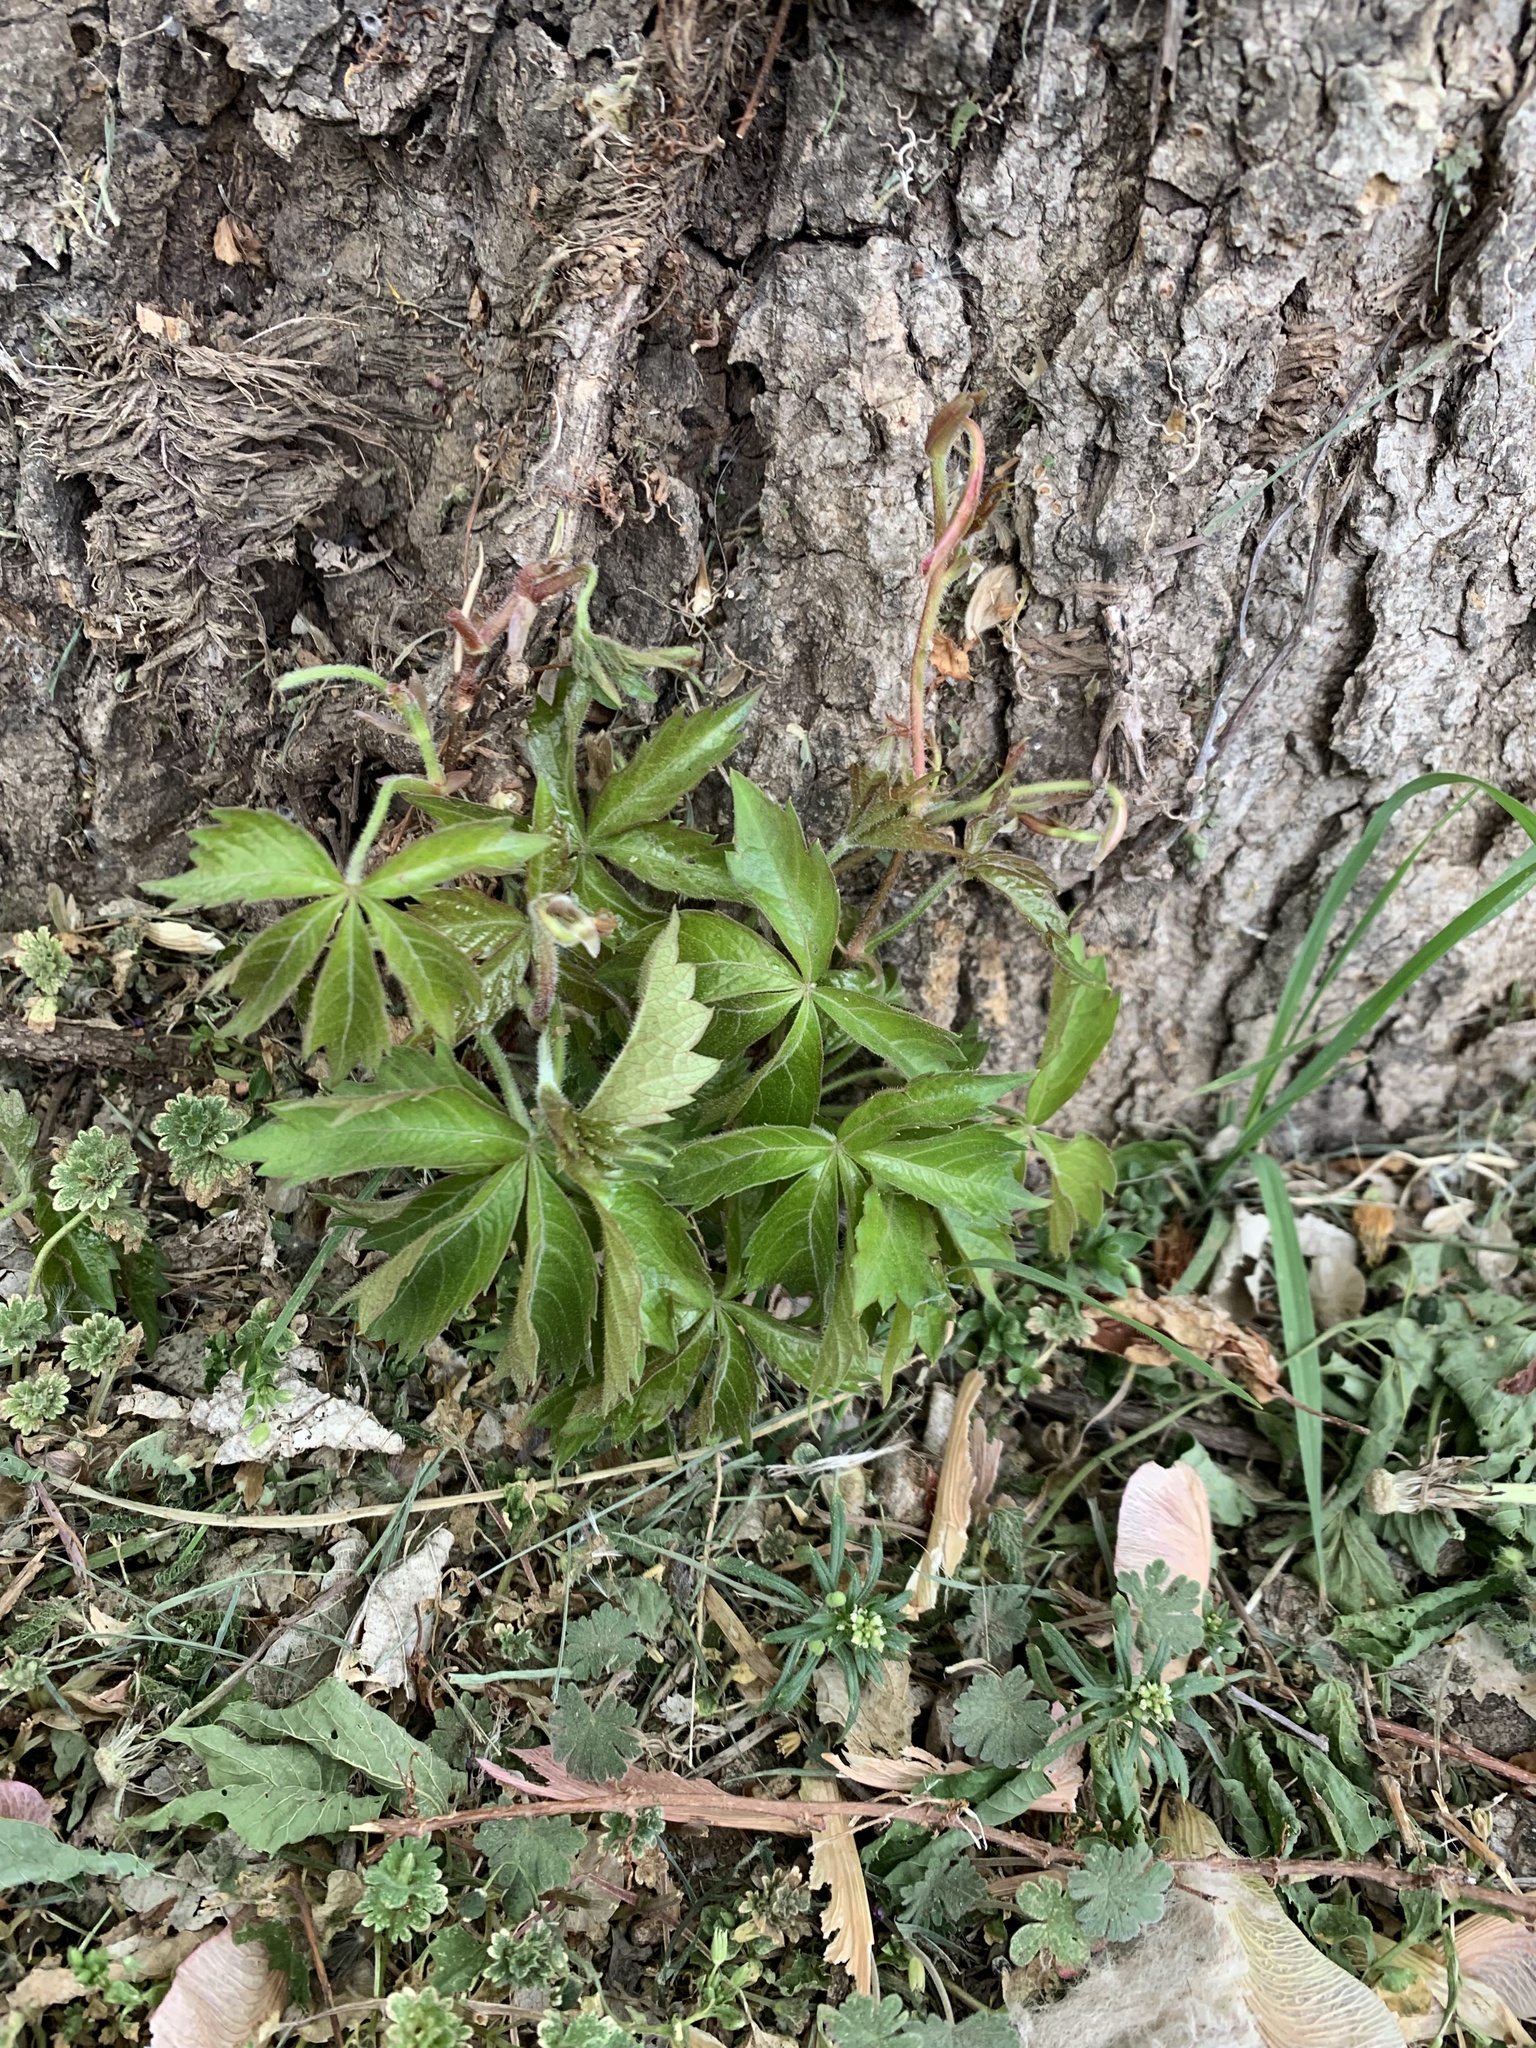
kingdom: Plantae
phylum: Tracheophyta
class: Magnoliopsida
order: Vitales
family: Vitaceae
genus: Parthenocissus
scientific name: Parthenocissus quinquefolia
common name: Virginia-creeper
